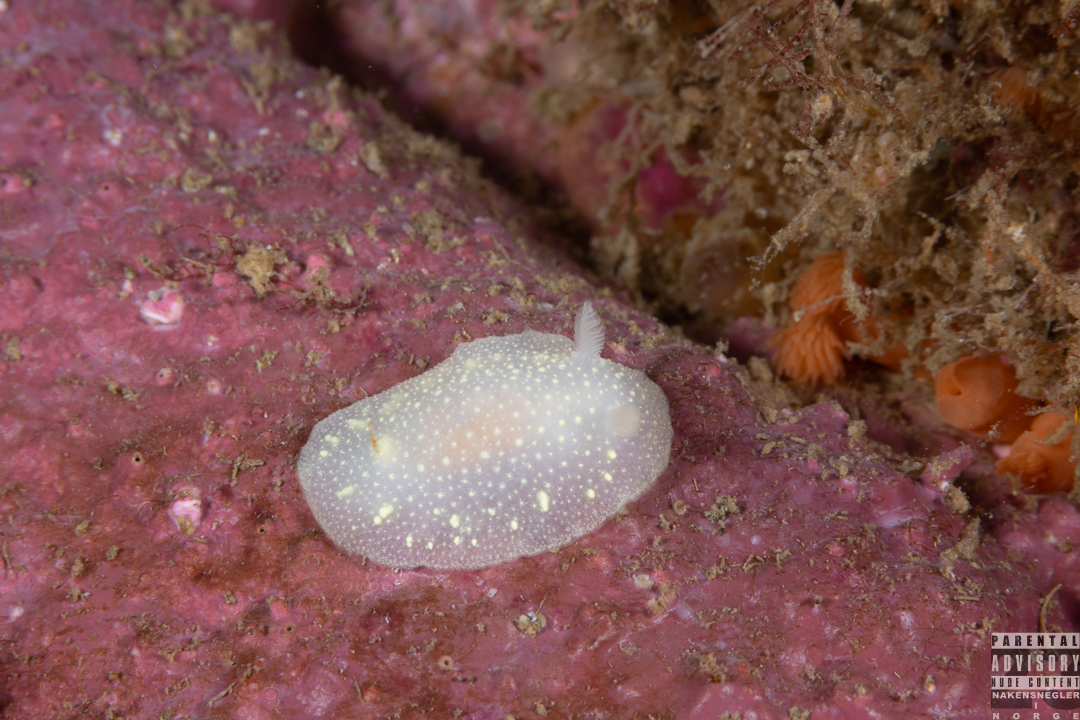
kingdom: Animalia
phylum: Mollusca
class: Gastropoda
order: Nudibranchia
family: Cadlinidae
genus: Cadlina
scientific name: Cadlina laevis
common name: White atlantic cadlina
